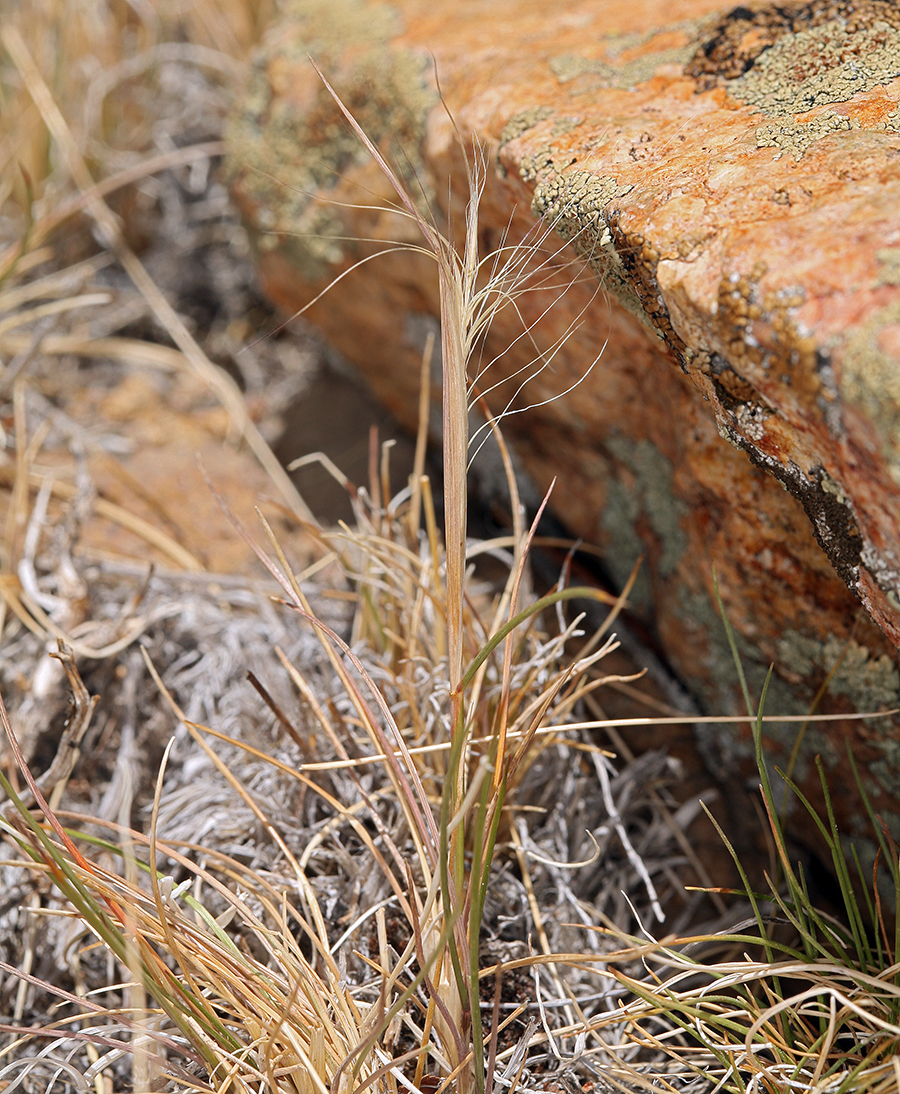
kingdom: Plantae
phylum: Tracheophyta
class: Liliopsida
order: Poales
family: Poaceae
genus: Elymus
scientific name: Elymus elymoides
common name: Bottlebrush squirreltail
